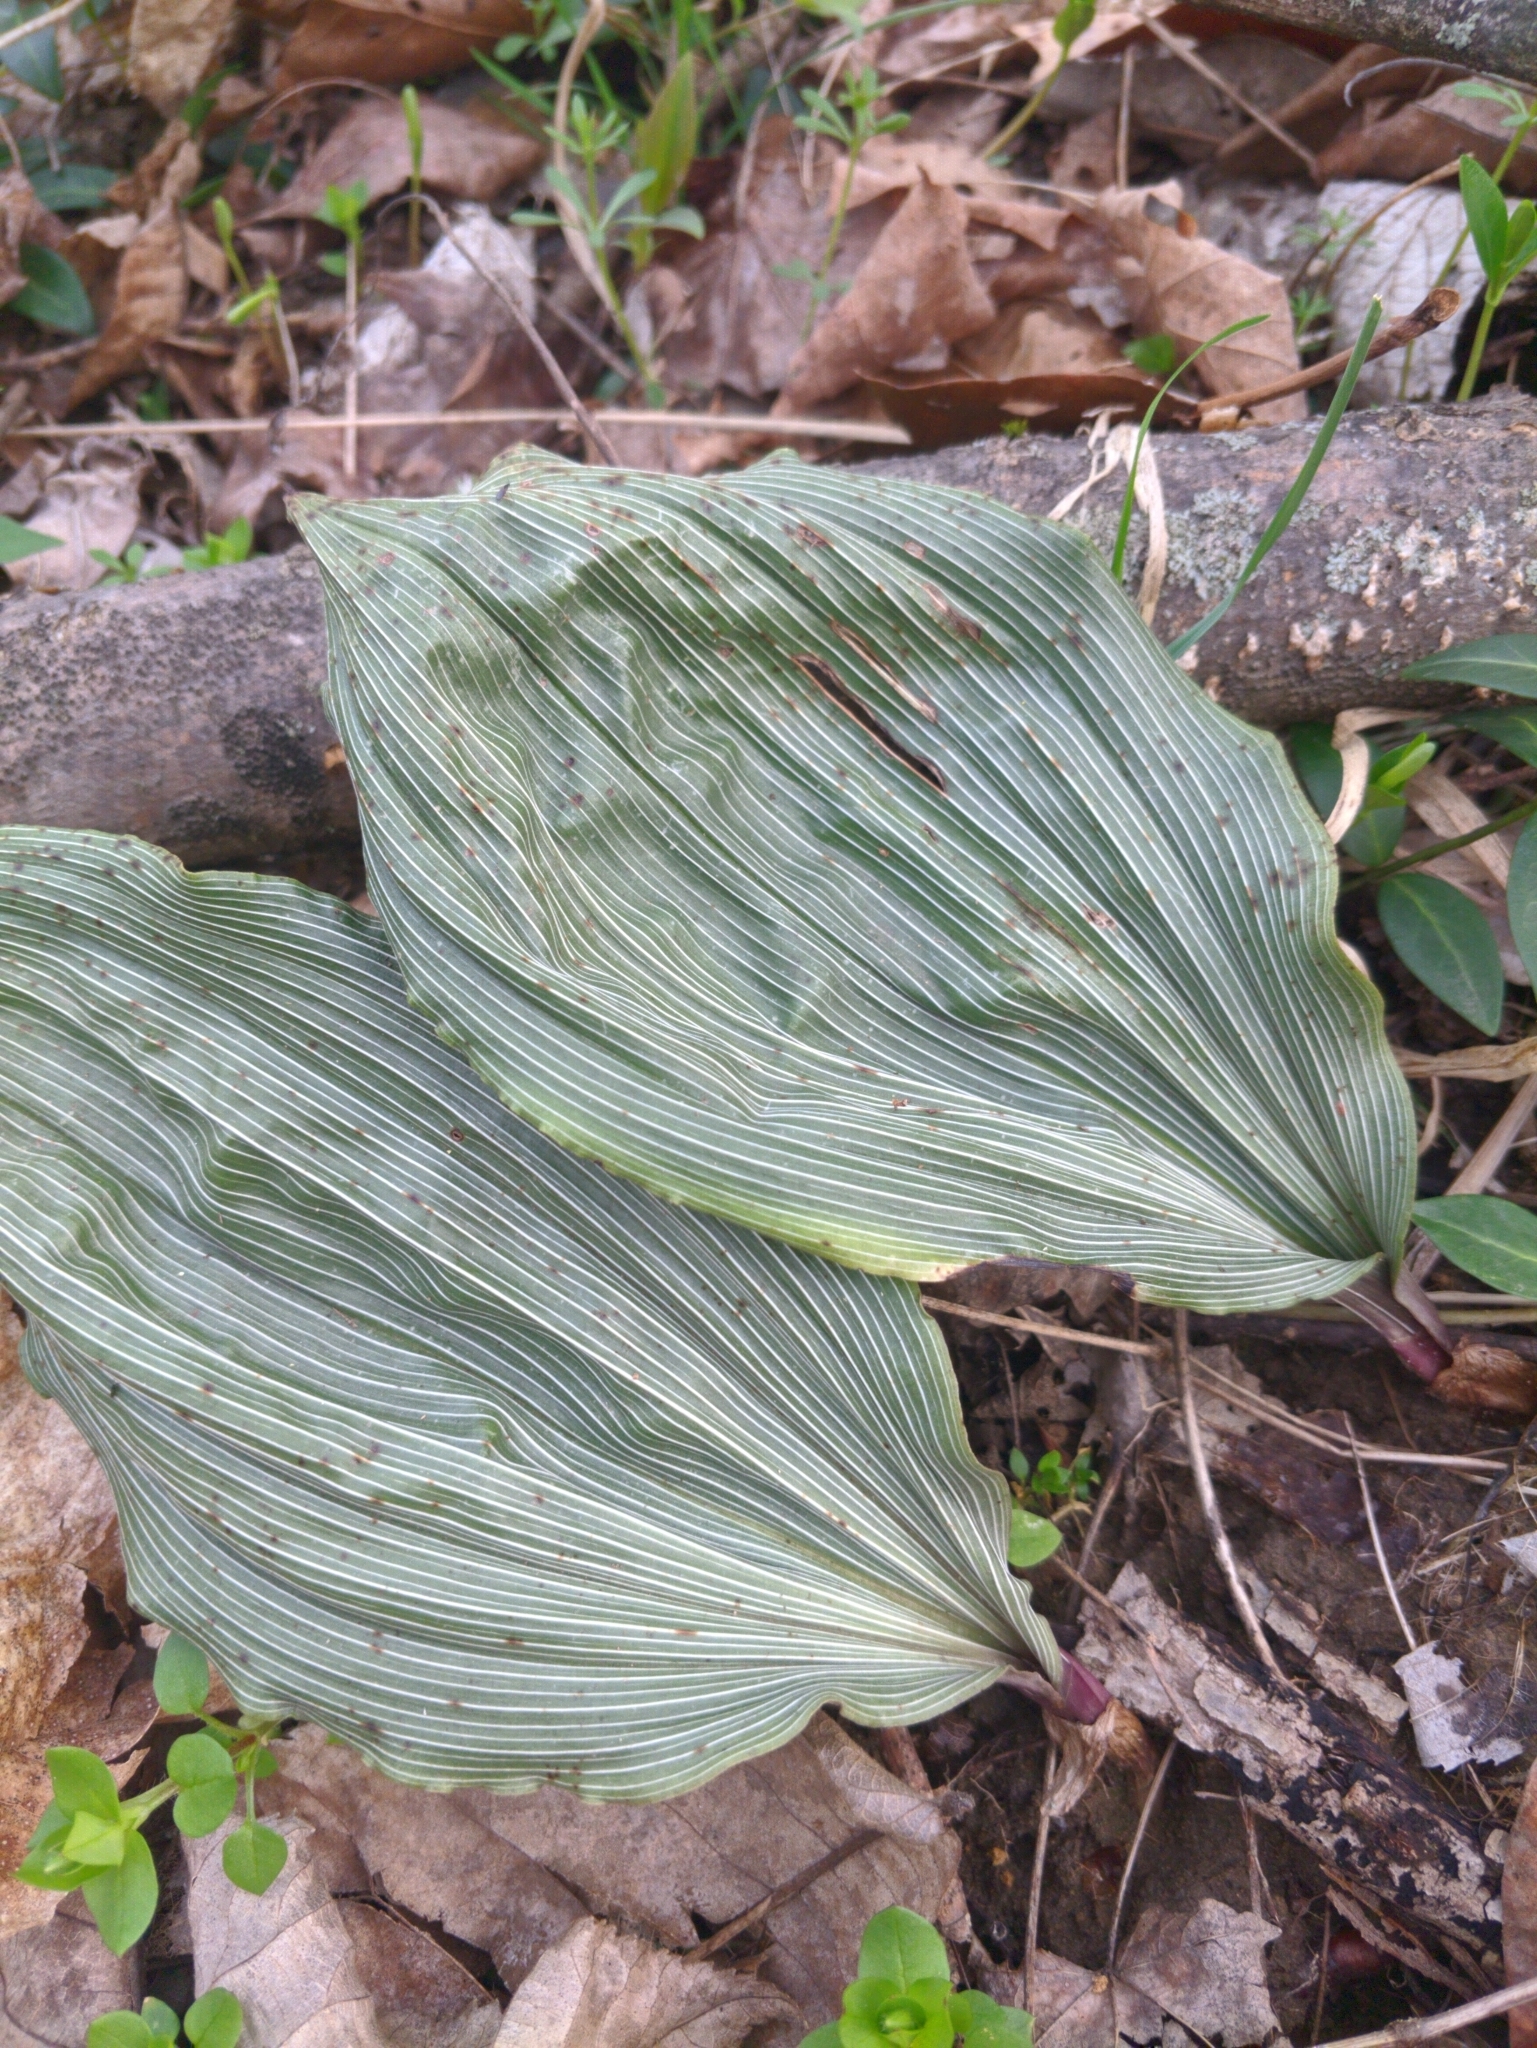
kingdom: Plantae
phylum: Tracheophyta
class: Liliopsida
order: Asparagales
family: Orchidaceae
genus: Aplectrum
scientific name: Aplectrum hyemale
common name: Adam-and-eve
